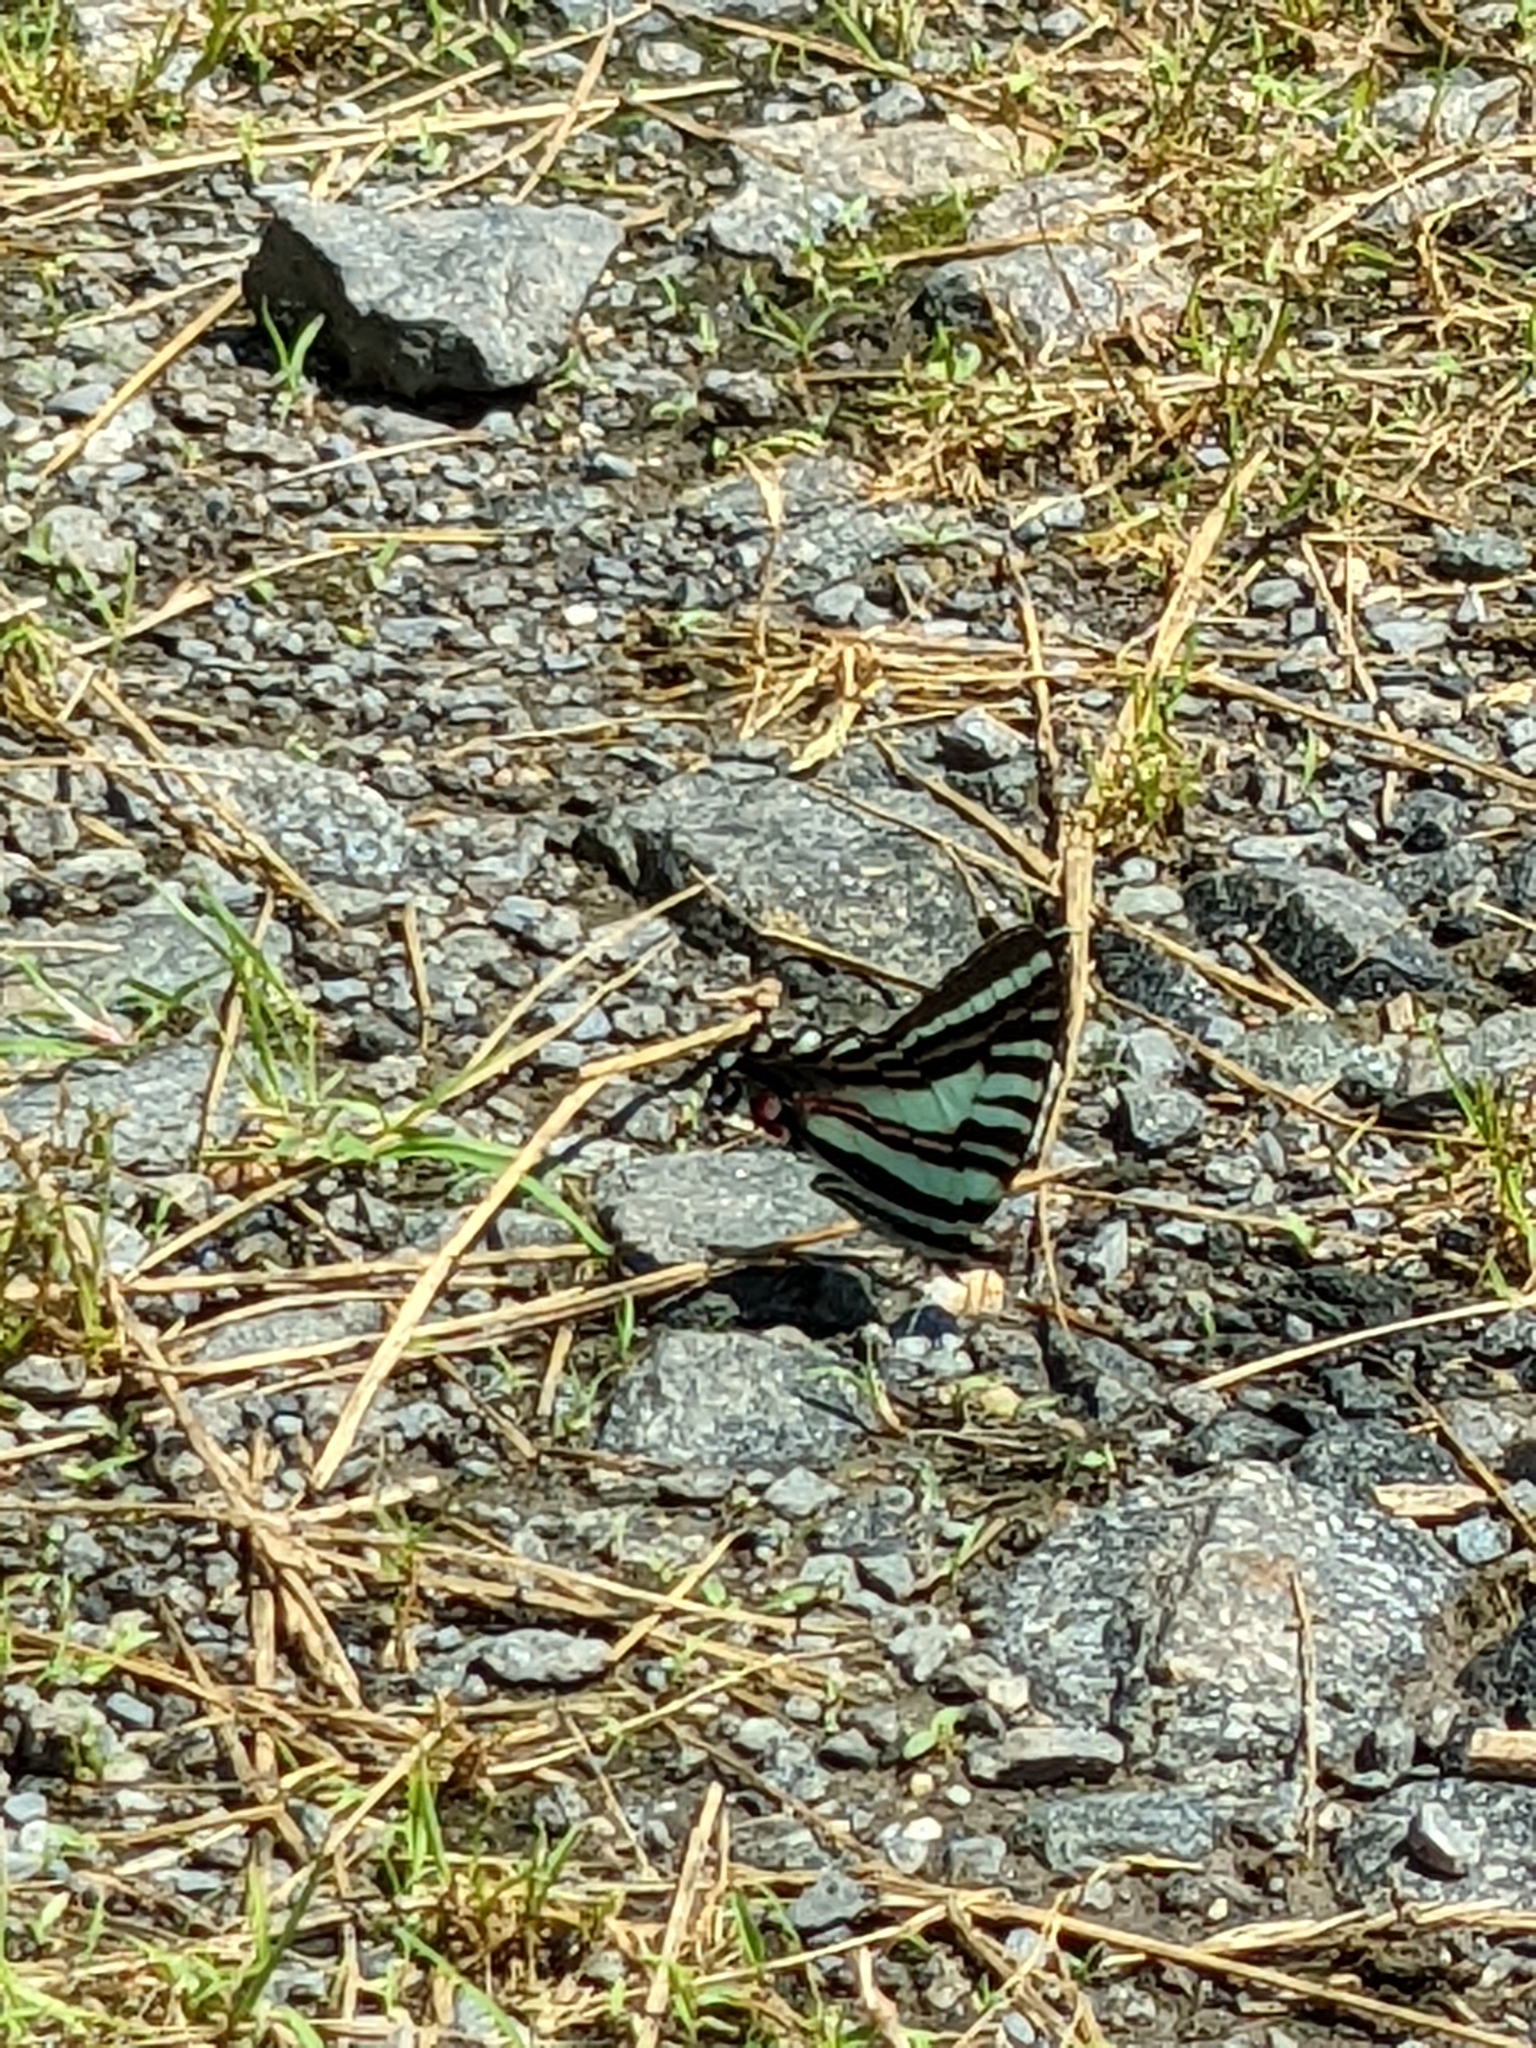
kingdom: Animalia
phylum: Arthropoda
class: Insecta
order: Lepidoptera
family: Papilionidae
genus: Protographium
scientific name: Protographium marcellus
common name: Zebra swallowtail
